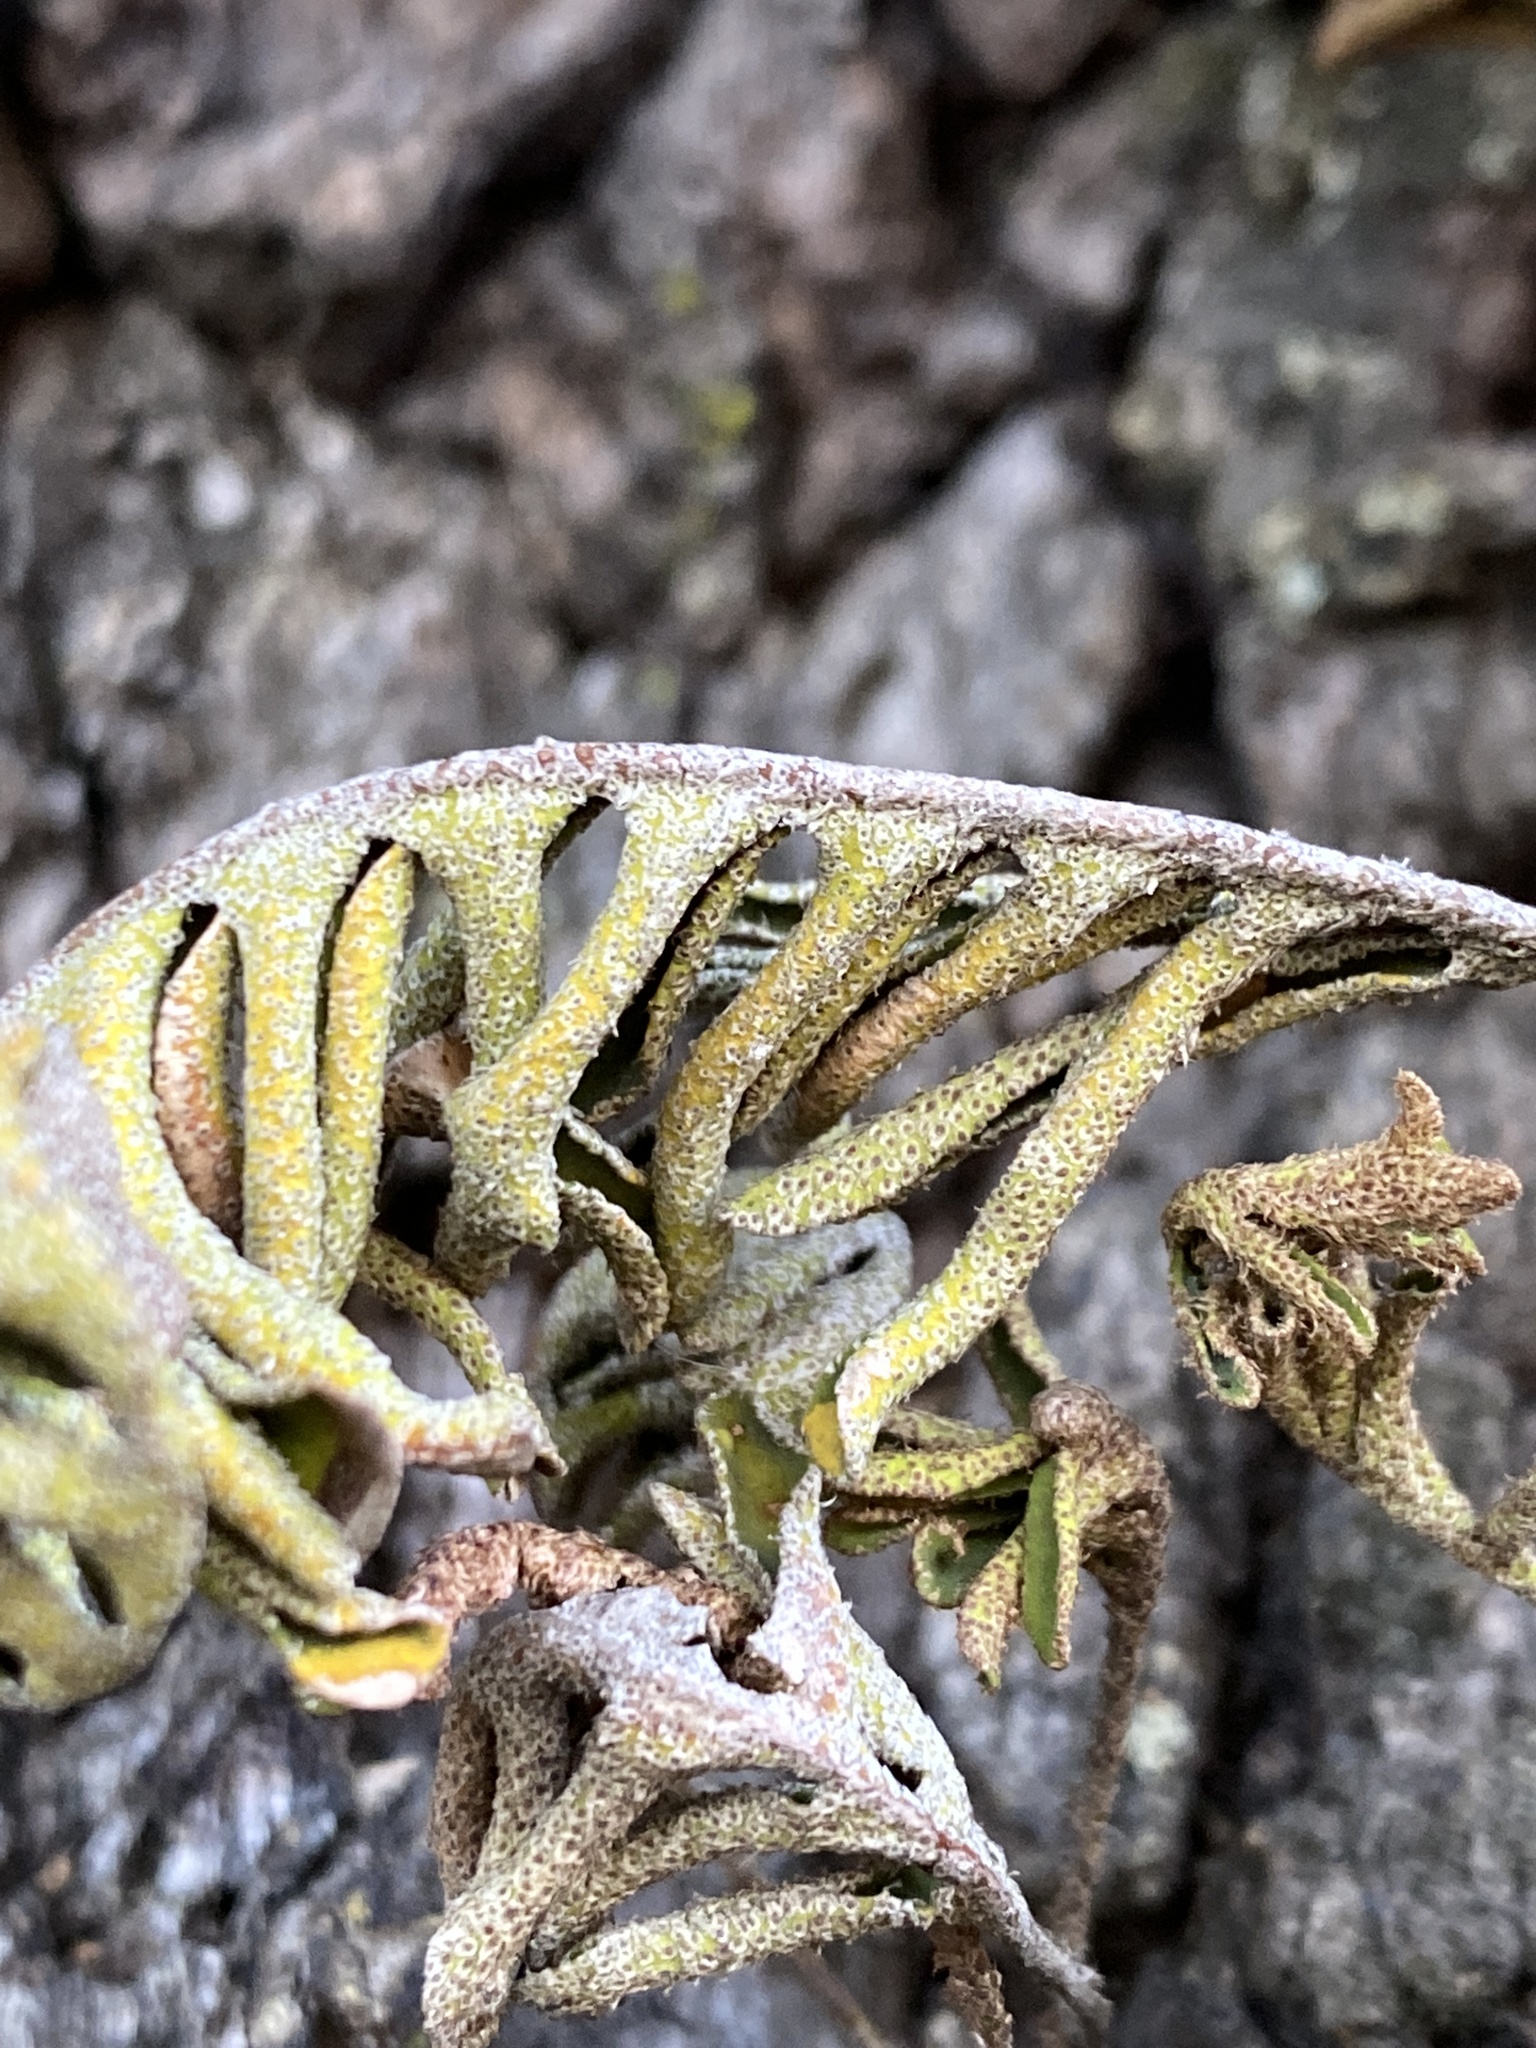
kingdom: Plantae
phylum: Tracheophyta
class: Polypodiopsida
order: Polypodiales
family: Polypodiaceae
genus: Pleopeltis
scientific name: Pleopeltis michauxiana
